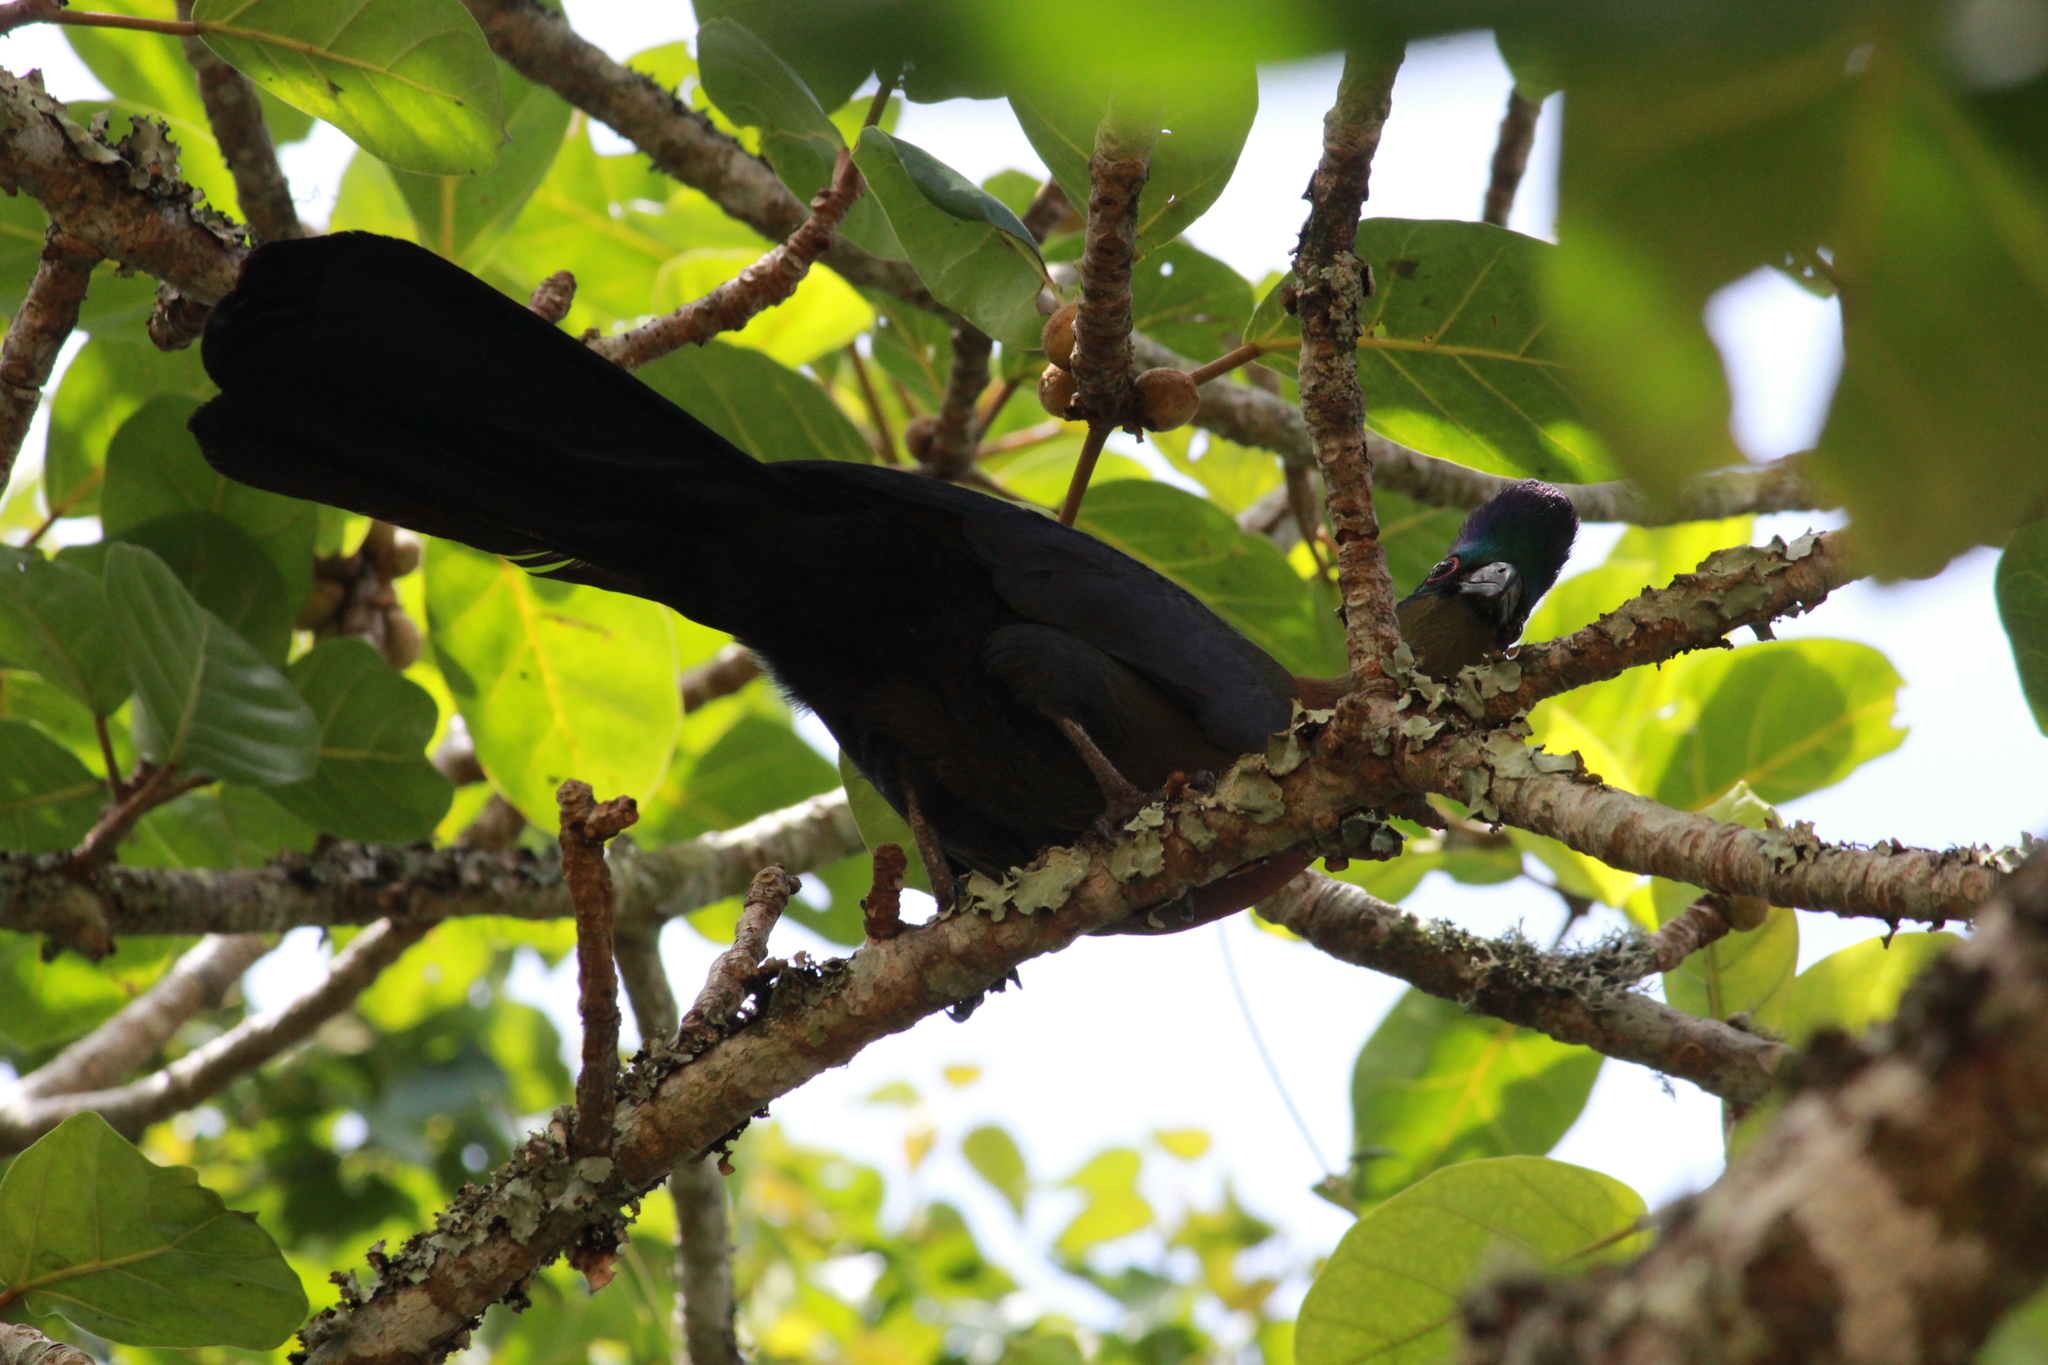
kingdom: Animalia
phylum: Chordata
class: Aves
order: Musophagiformes
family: Musophagidae
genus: Tauraco
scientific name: Tauraco porphyreolophus
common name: Purple-crested turaco
